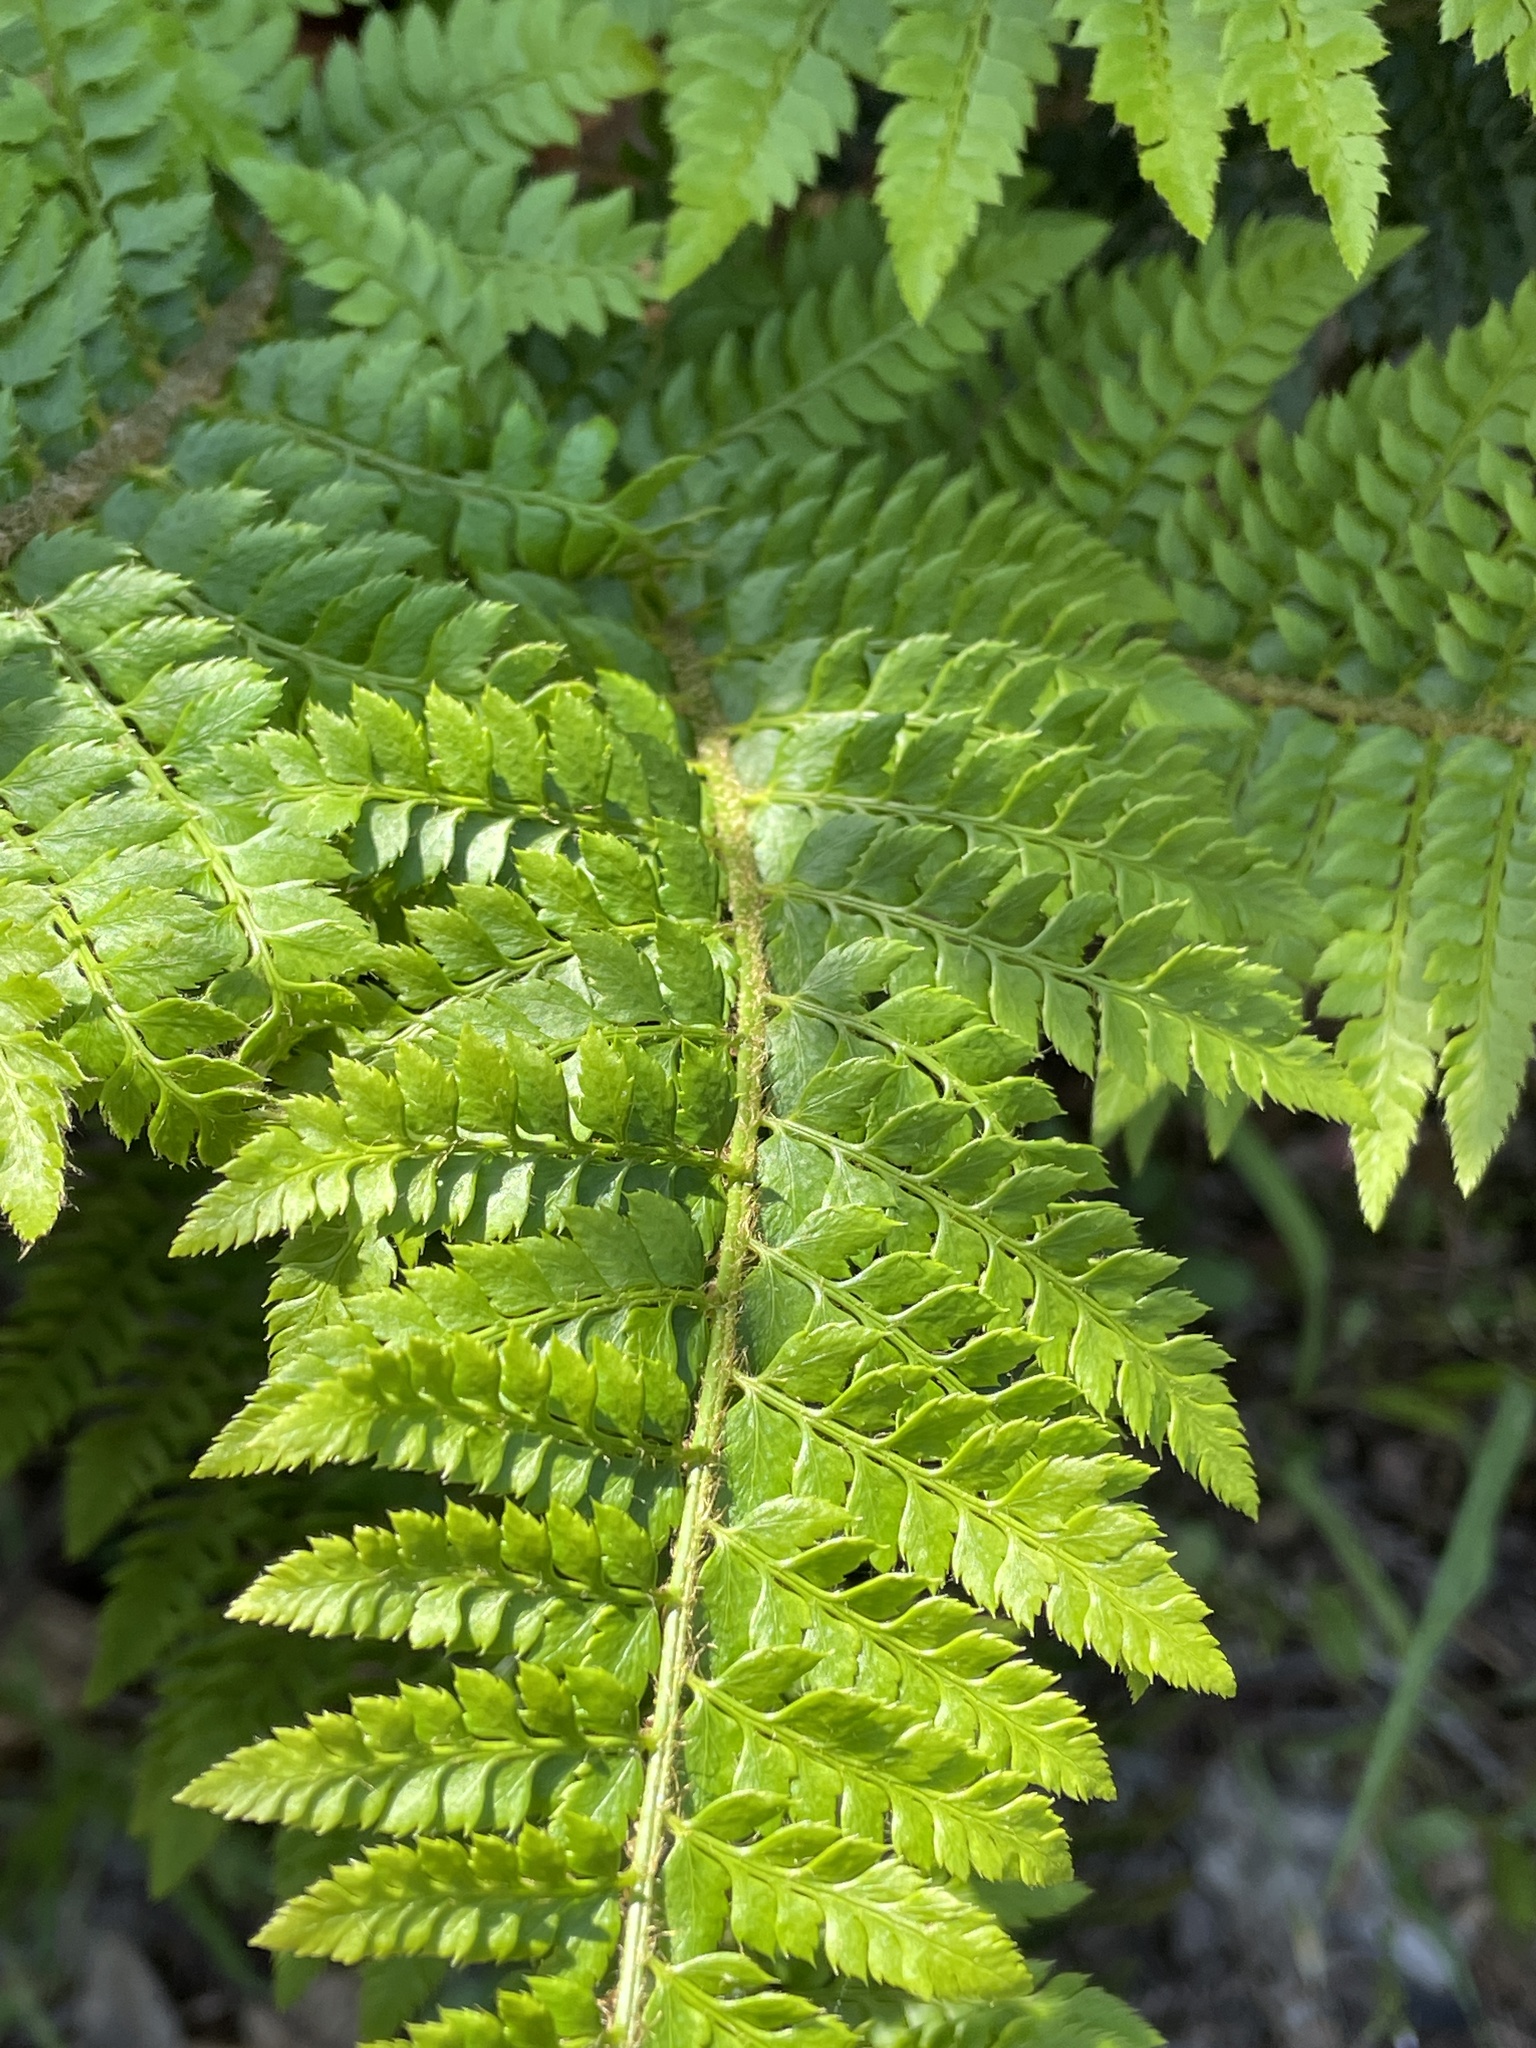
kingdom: Plantae
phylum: Tracheophyta
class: Polypodiopsida
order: Polypodiales
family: Dryopteridaceae
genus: Polystichum
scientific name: Polystichum californicum
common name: California sword fern
